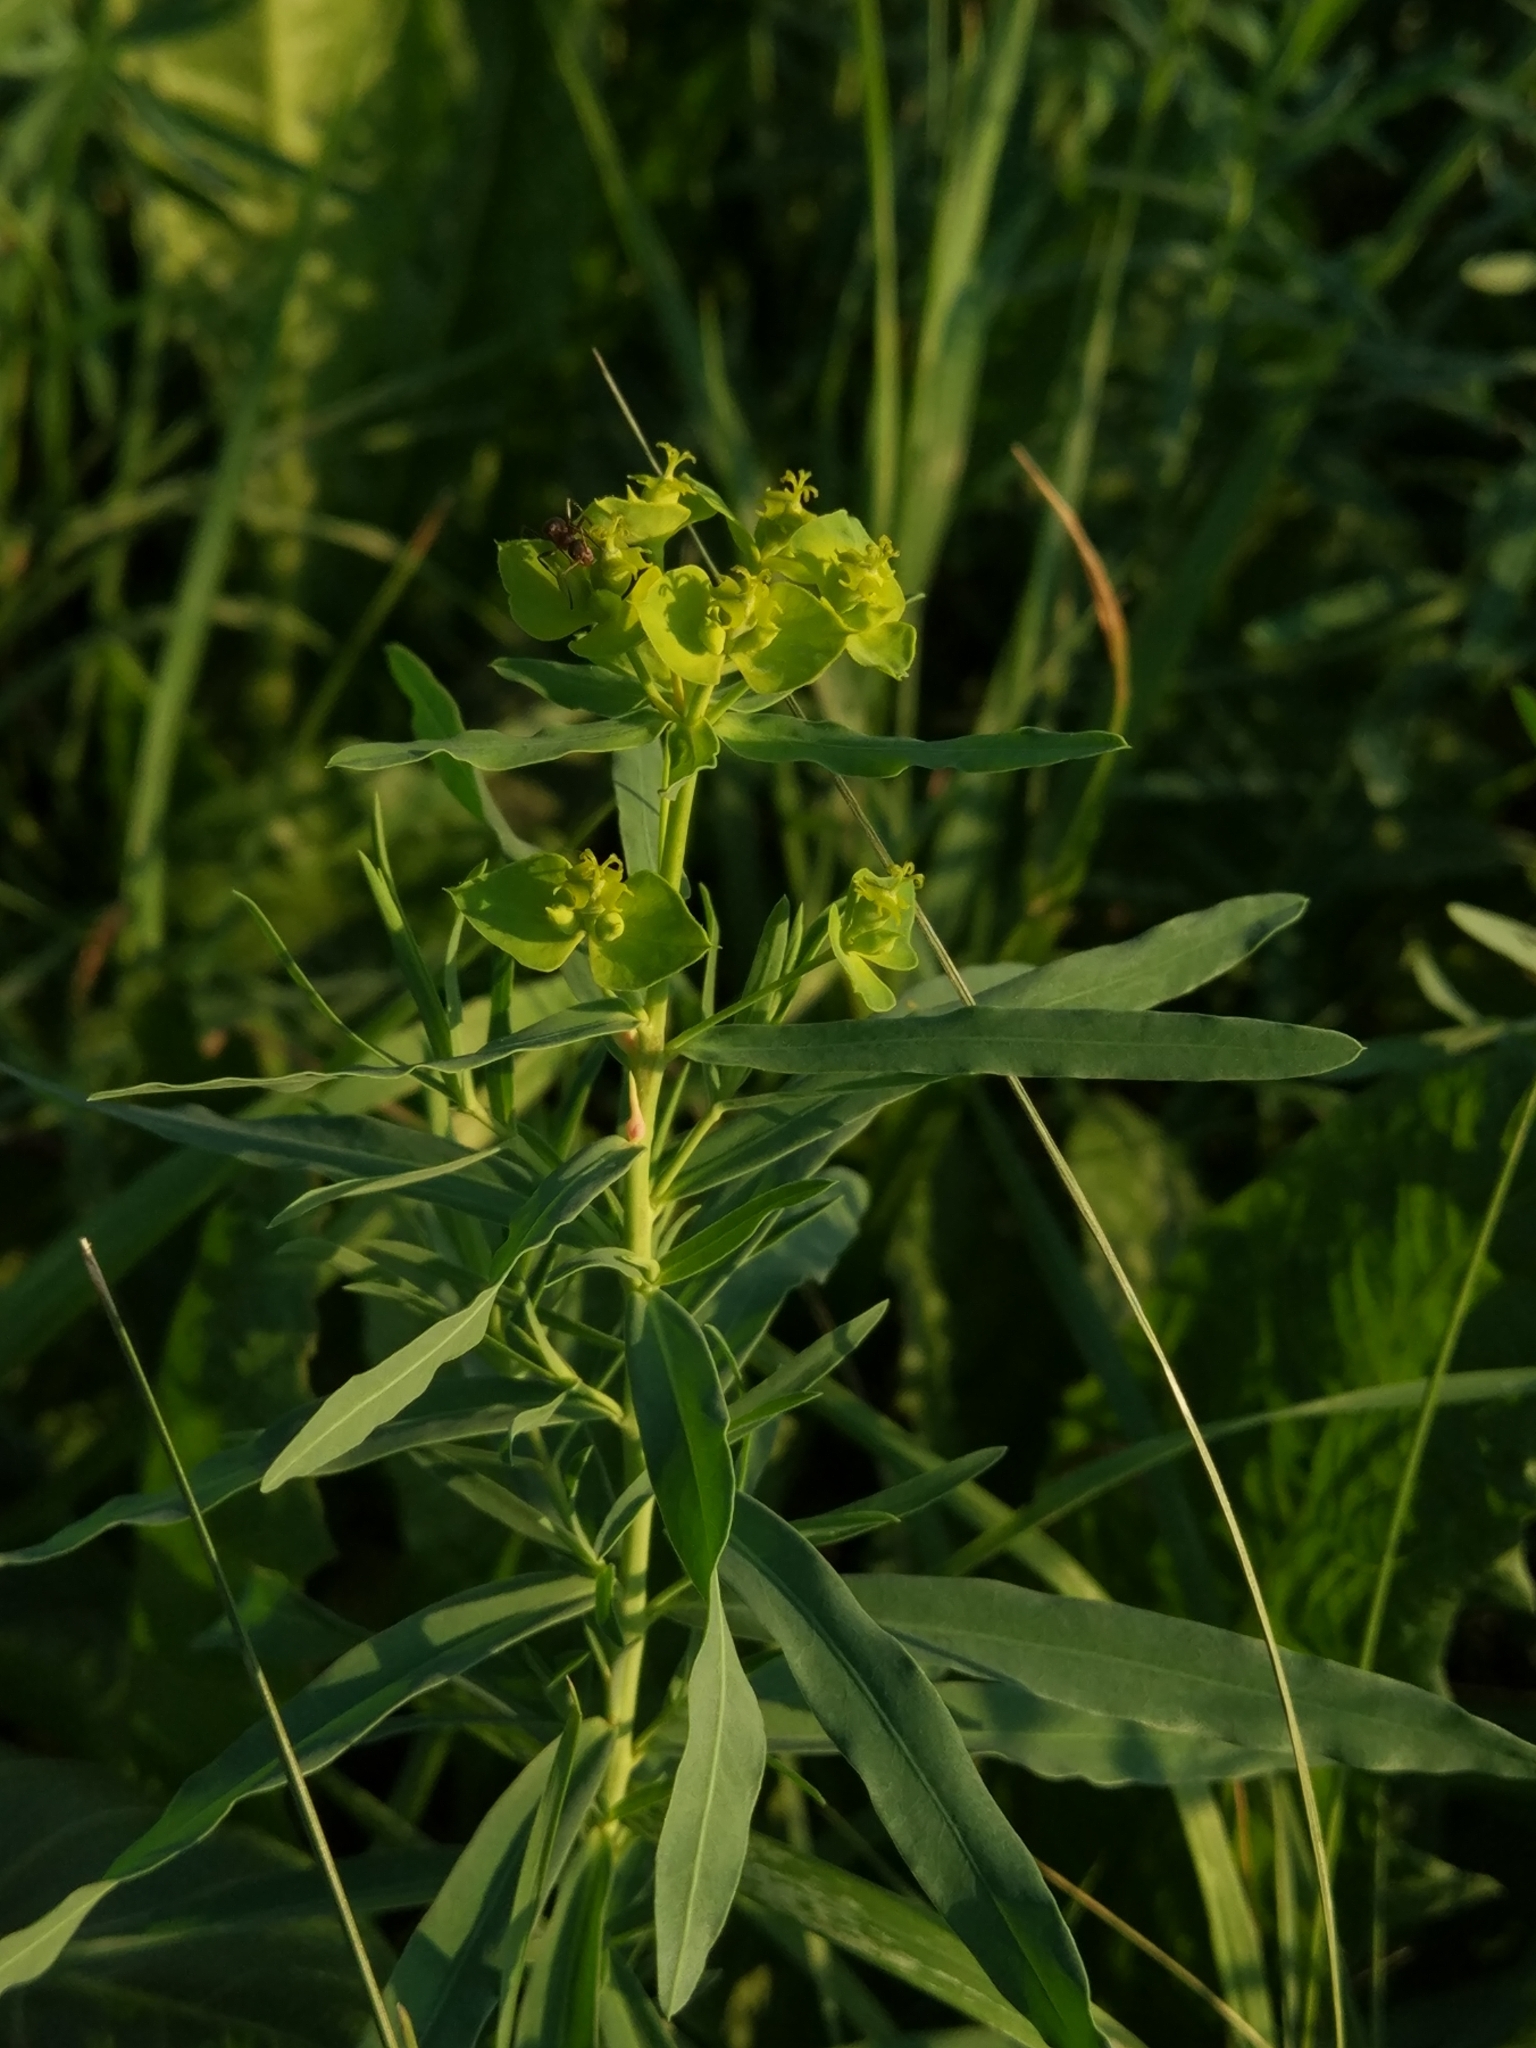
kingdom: Plantae
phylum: Tracheophyta
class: Magnoliopsida
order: Malpighiales
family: Euphorbiaceae
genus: Euphorbia
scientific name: Euphorbia virgata
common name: Leafy spurge
